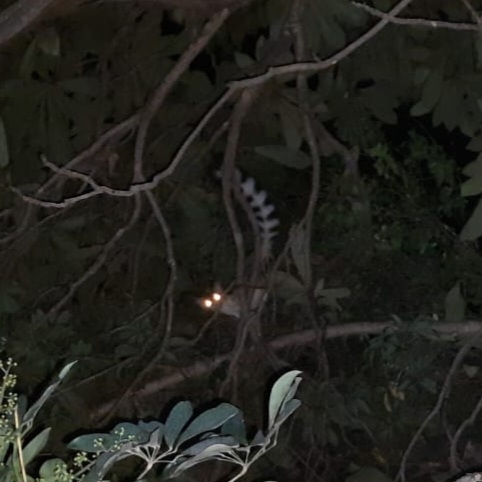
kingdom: Animalia
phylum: Chordata
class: Mammalia
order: Carnivora
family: Procyonidae
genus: Bassariscus
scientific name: Bassariscus astutus
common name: Ringtail
